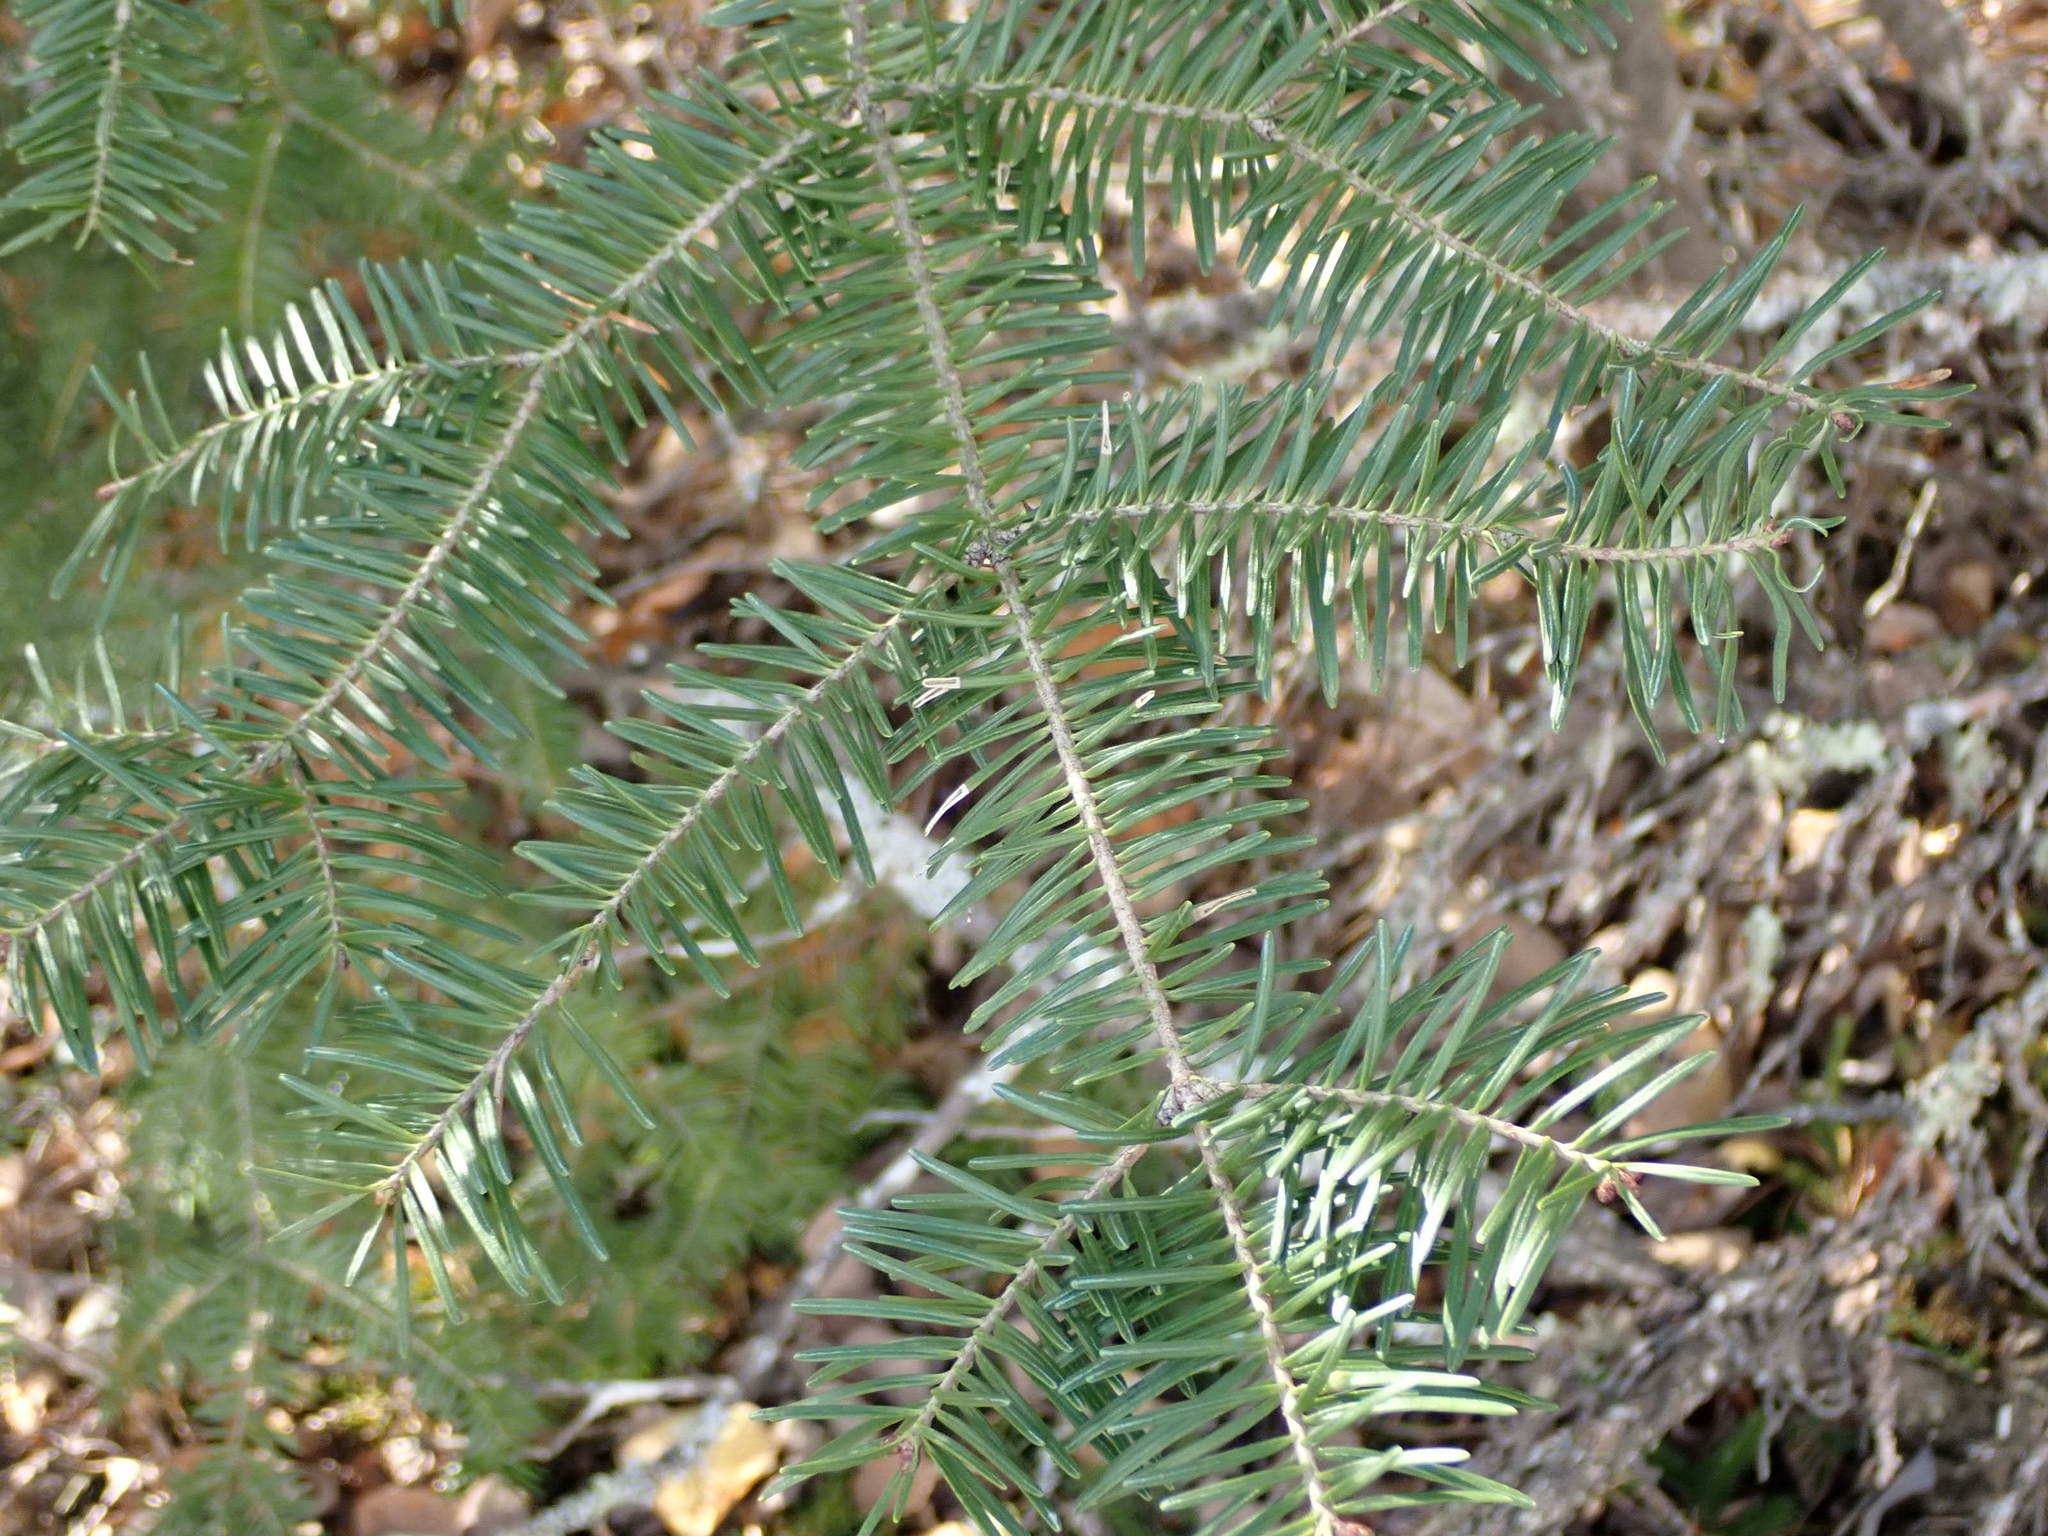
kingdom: Plantae
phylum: Tracheophyta
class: Pinopsida
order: Pinales
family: Pinaceae
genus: Abies
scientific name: Abies balsamea
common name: Balsam fir
